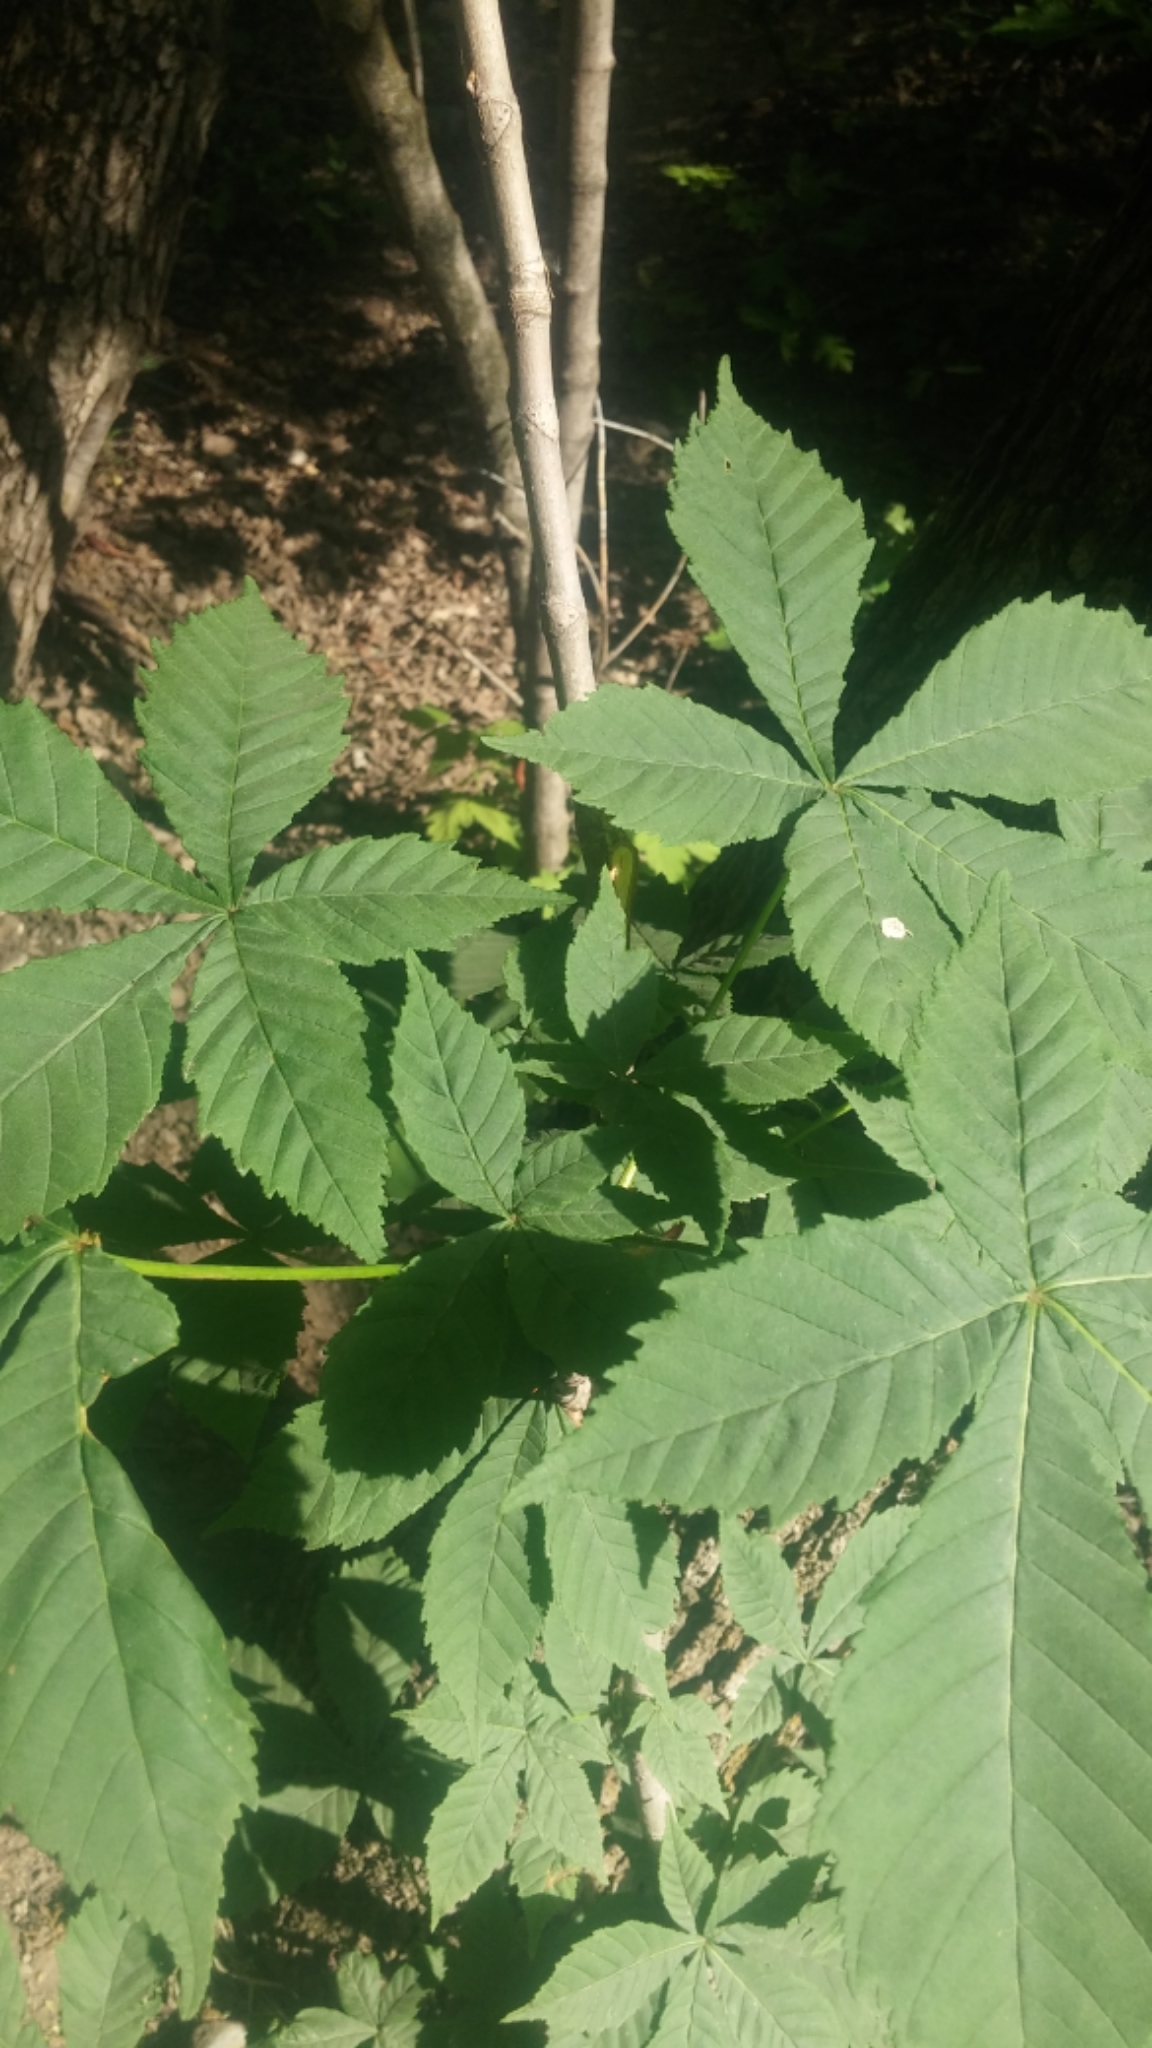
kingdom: Plantae
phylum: Tracheophyta
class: Magnoliopsida
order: Sapindales
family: Sapindaceae
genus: Aesculus
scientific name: Aesculus hippocastanum
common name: Horse-chestnut
